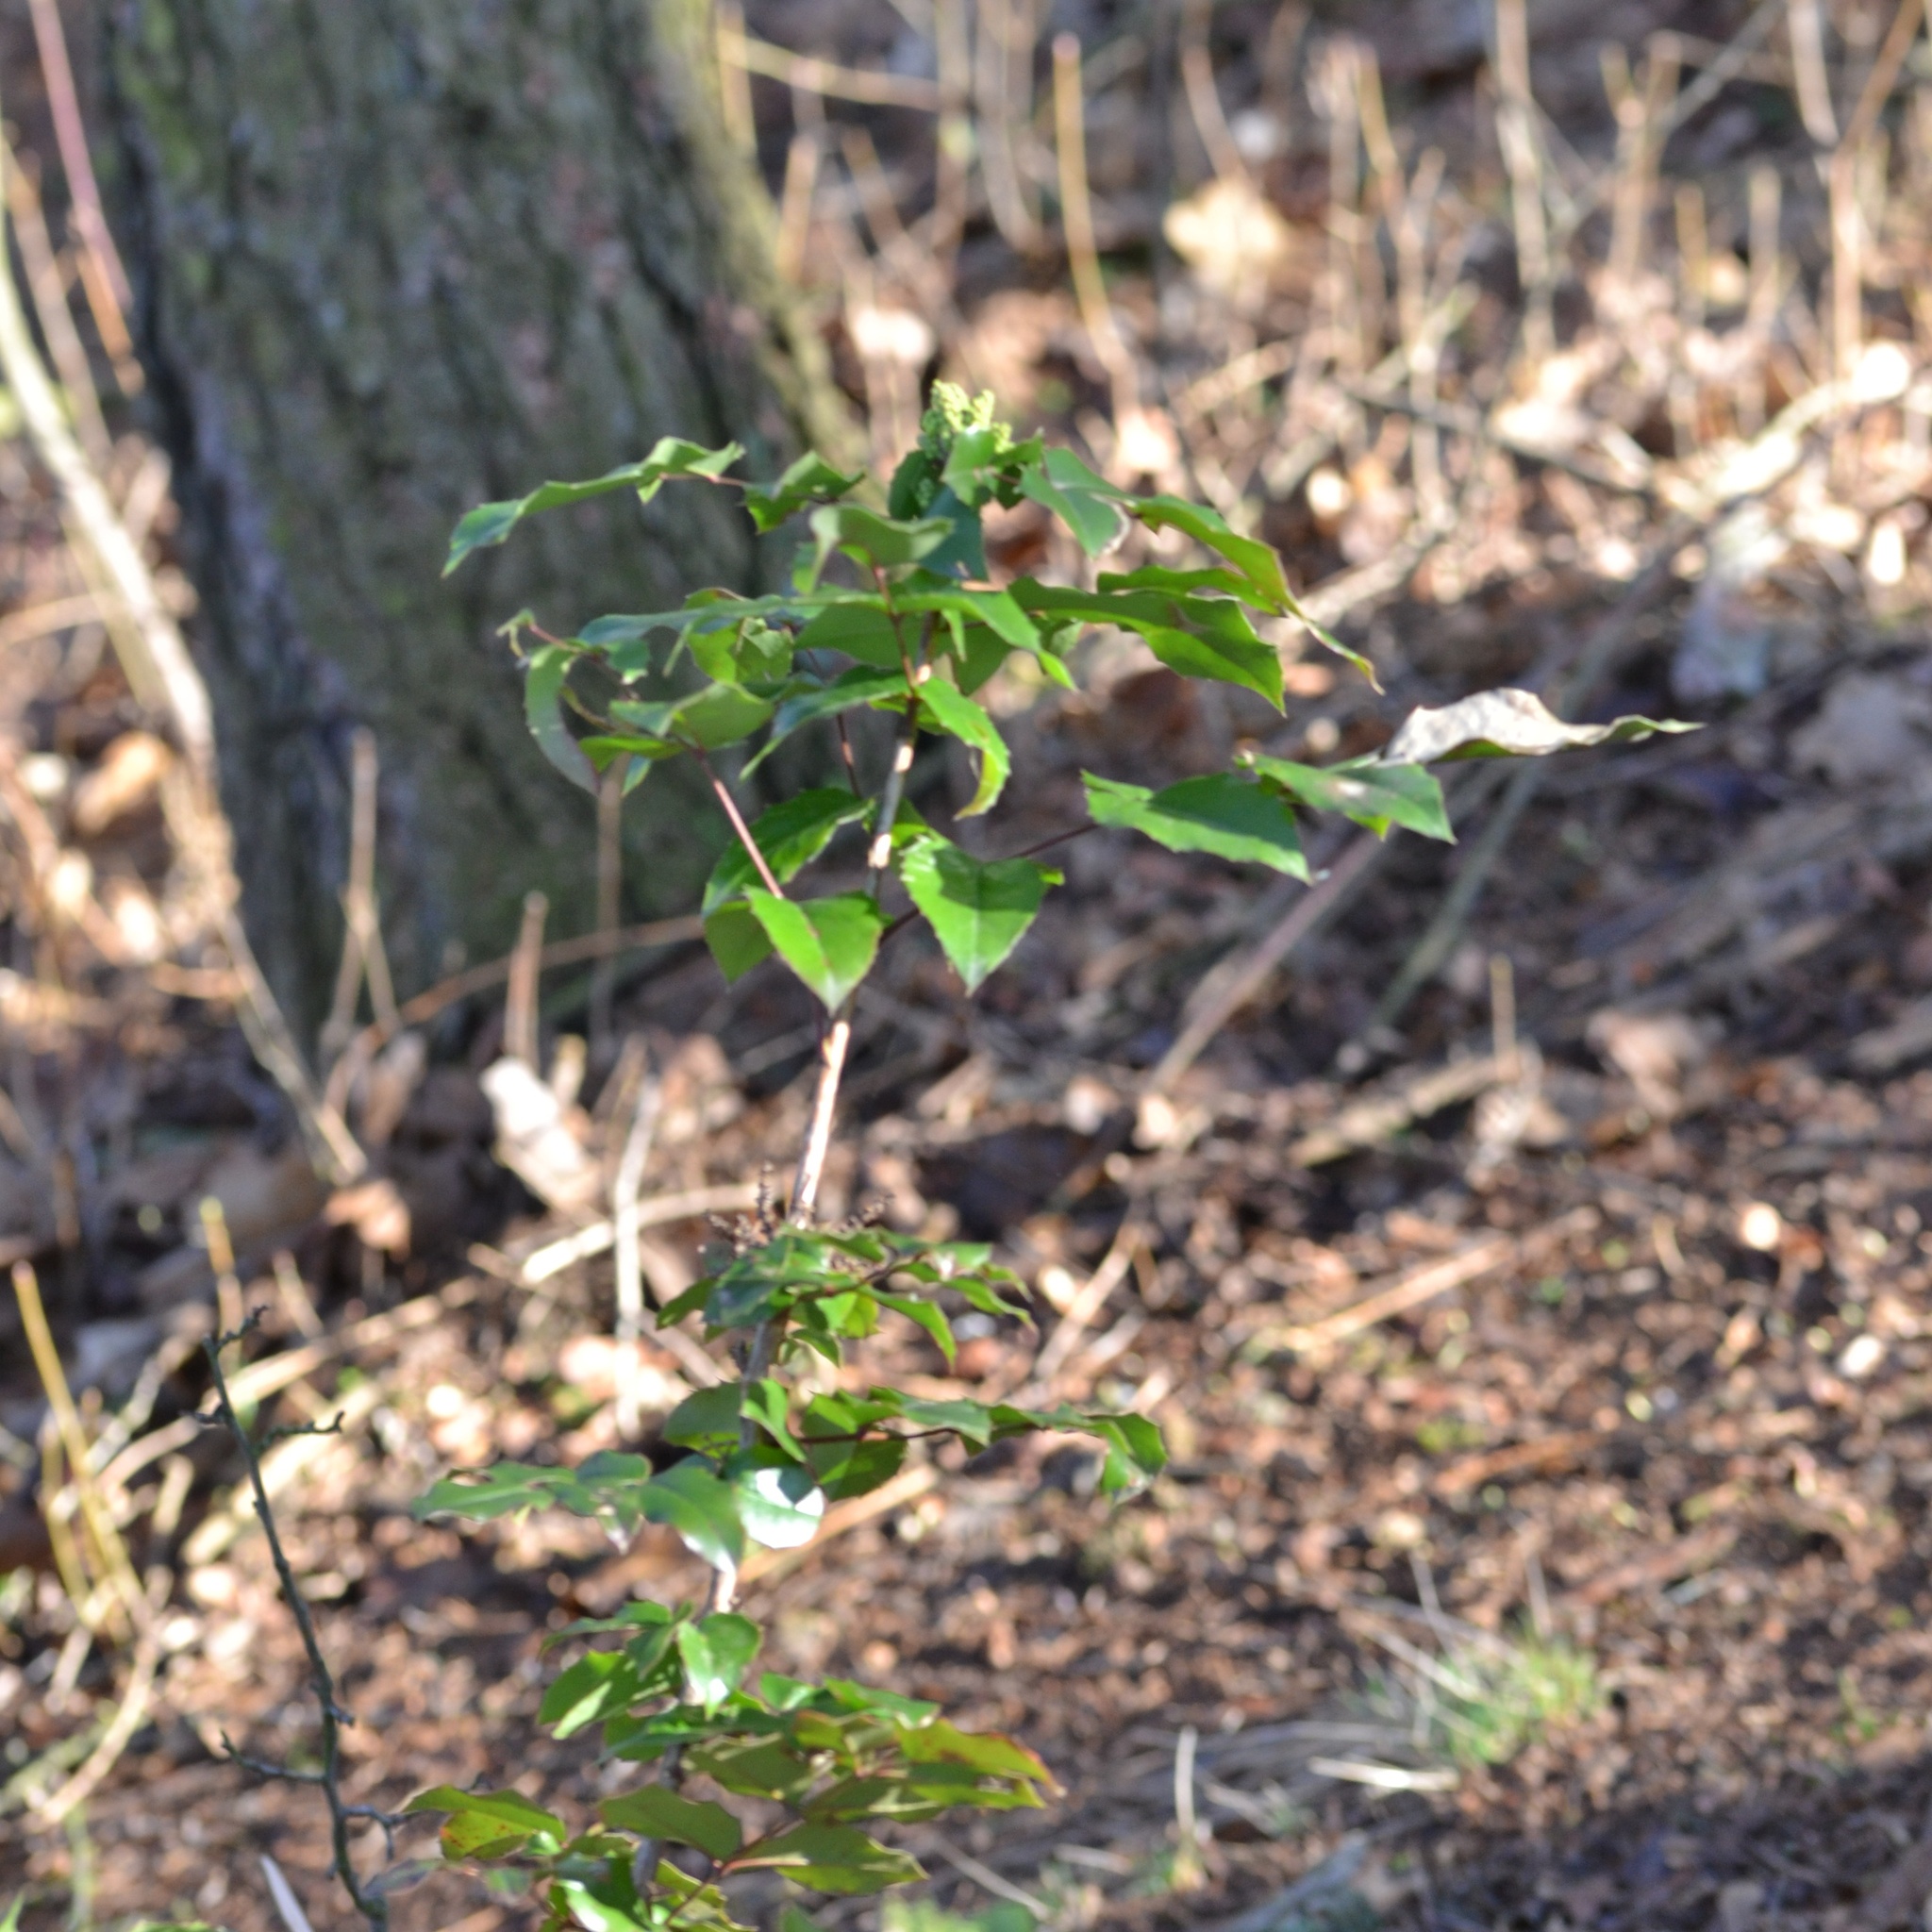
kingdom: Plantae
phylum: Tracheophyta
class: Magnoliopsida
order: Ranunculales
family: Berberidaceae
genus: Mahonia
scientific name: Mahonia aquifolium
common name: Oregon-grape
